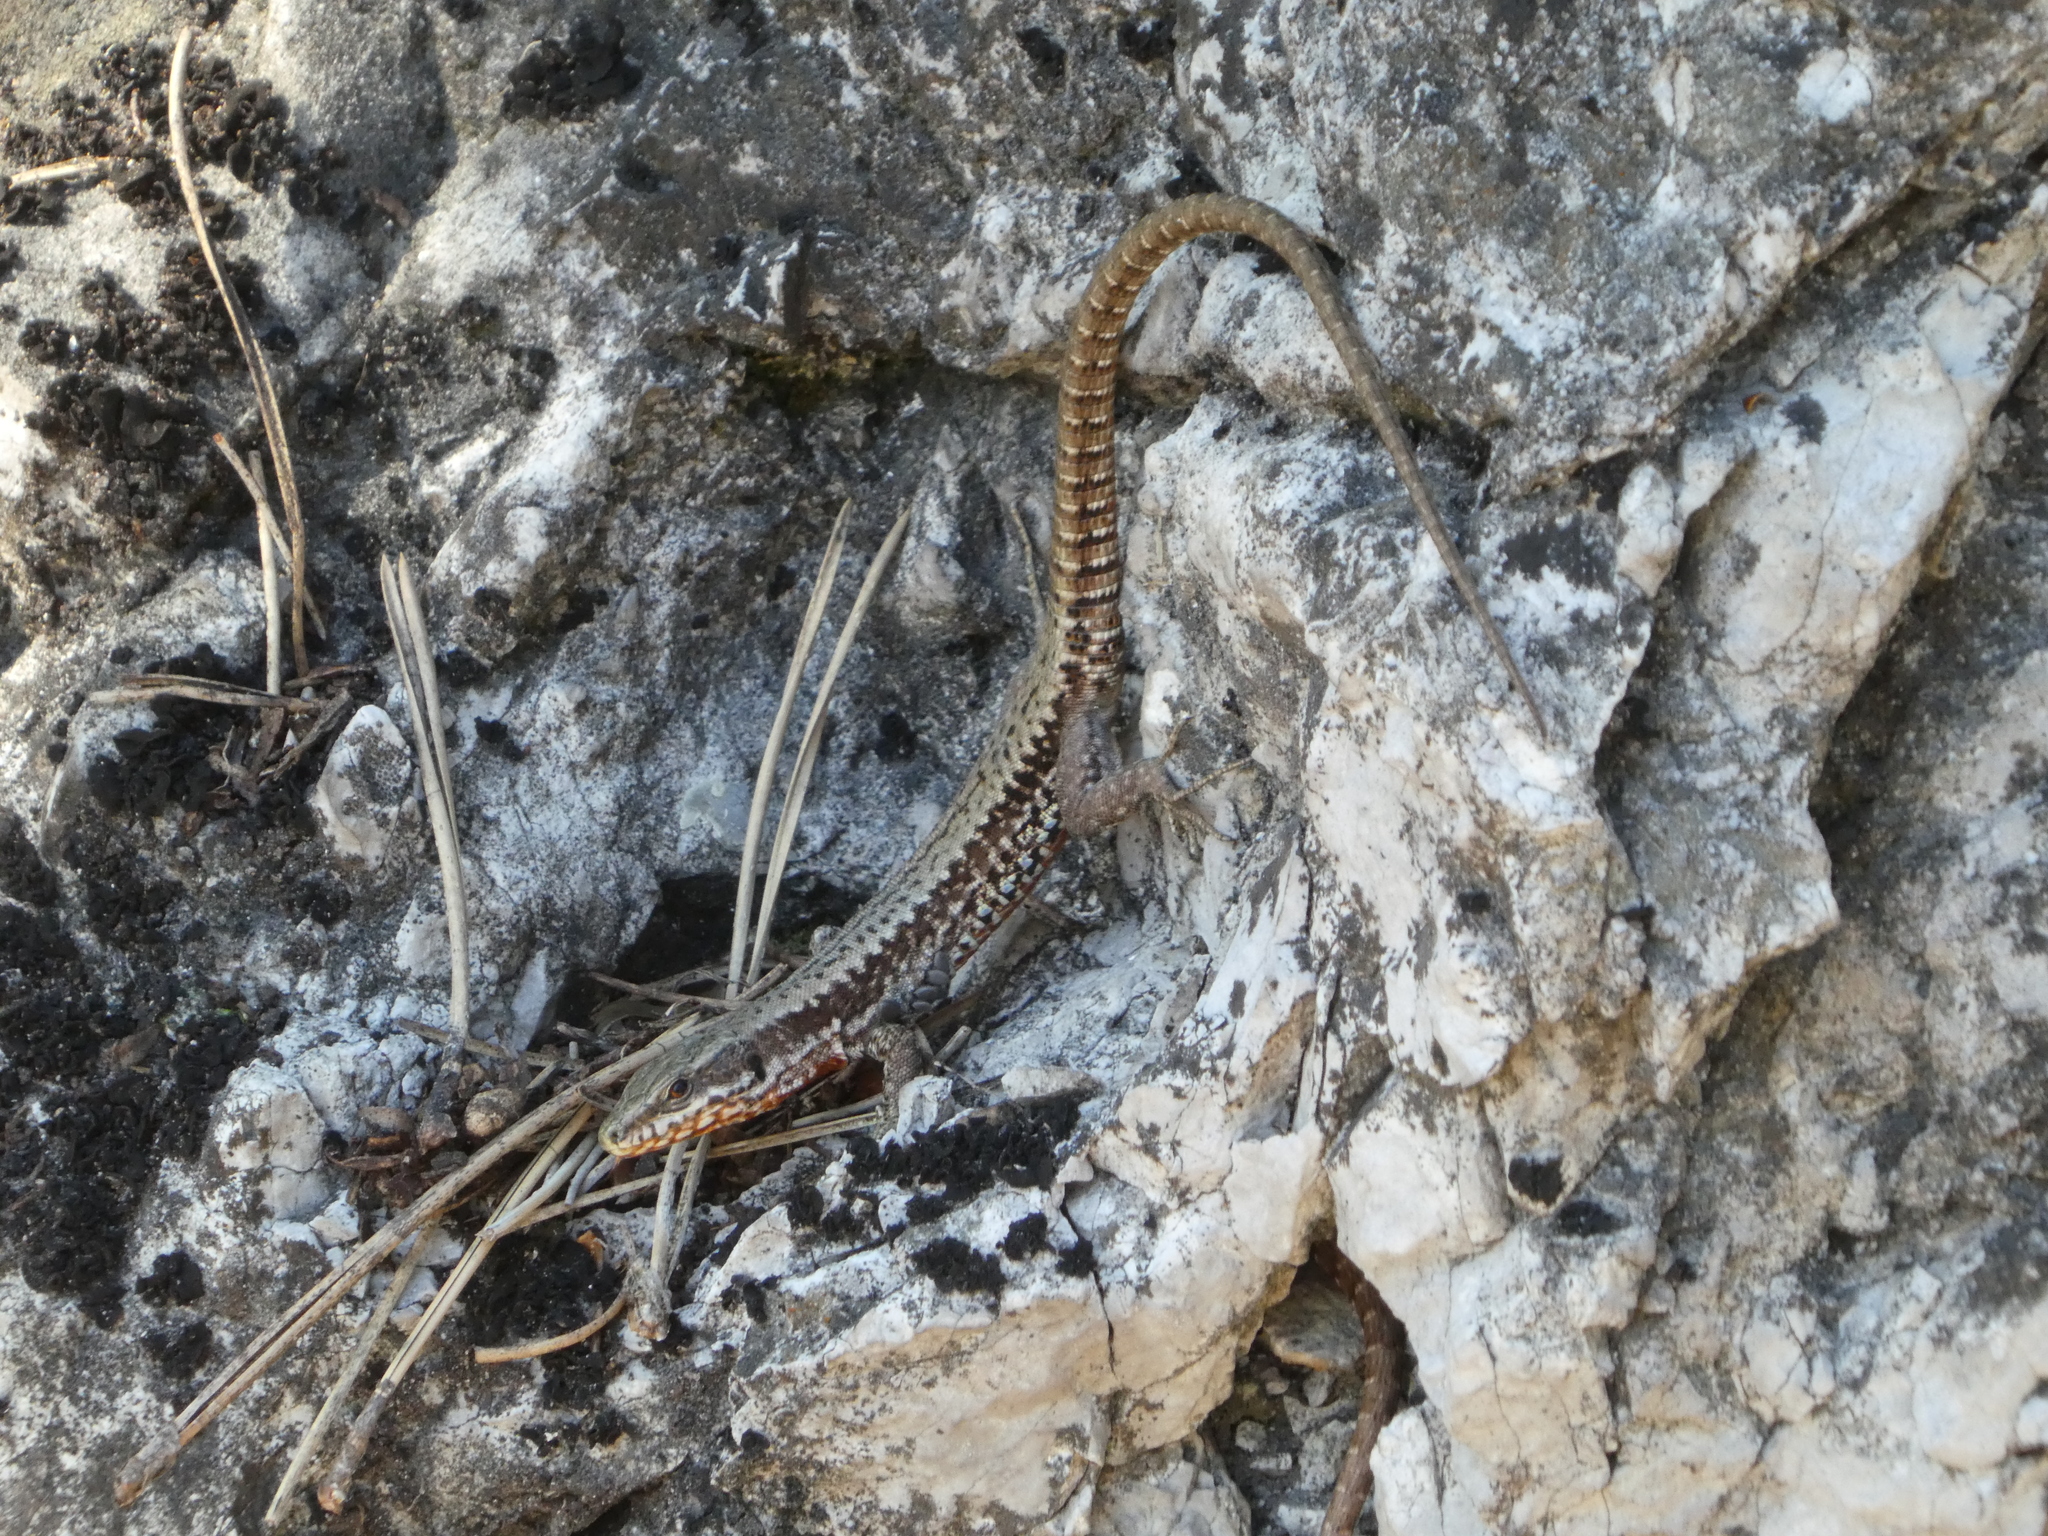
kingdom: Animalia
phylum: Chordata
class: Squamata
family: Lacertidae
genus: Podarcis
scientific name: Podarcis muralis
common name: Common wall lizard
